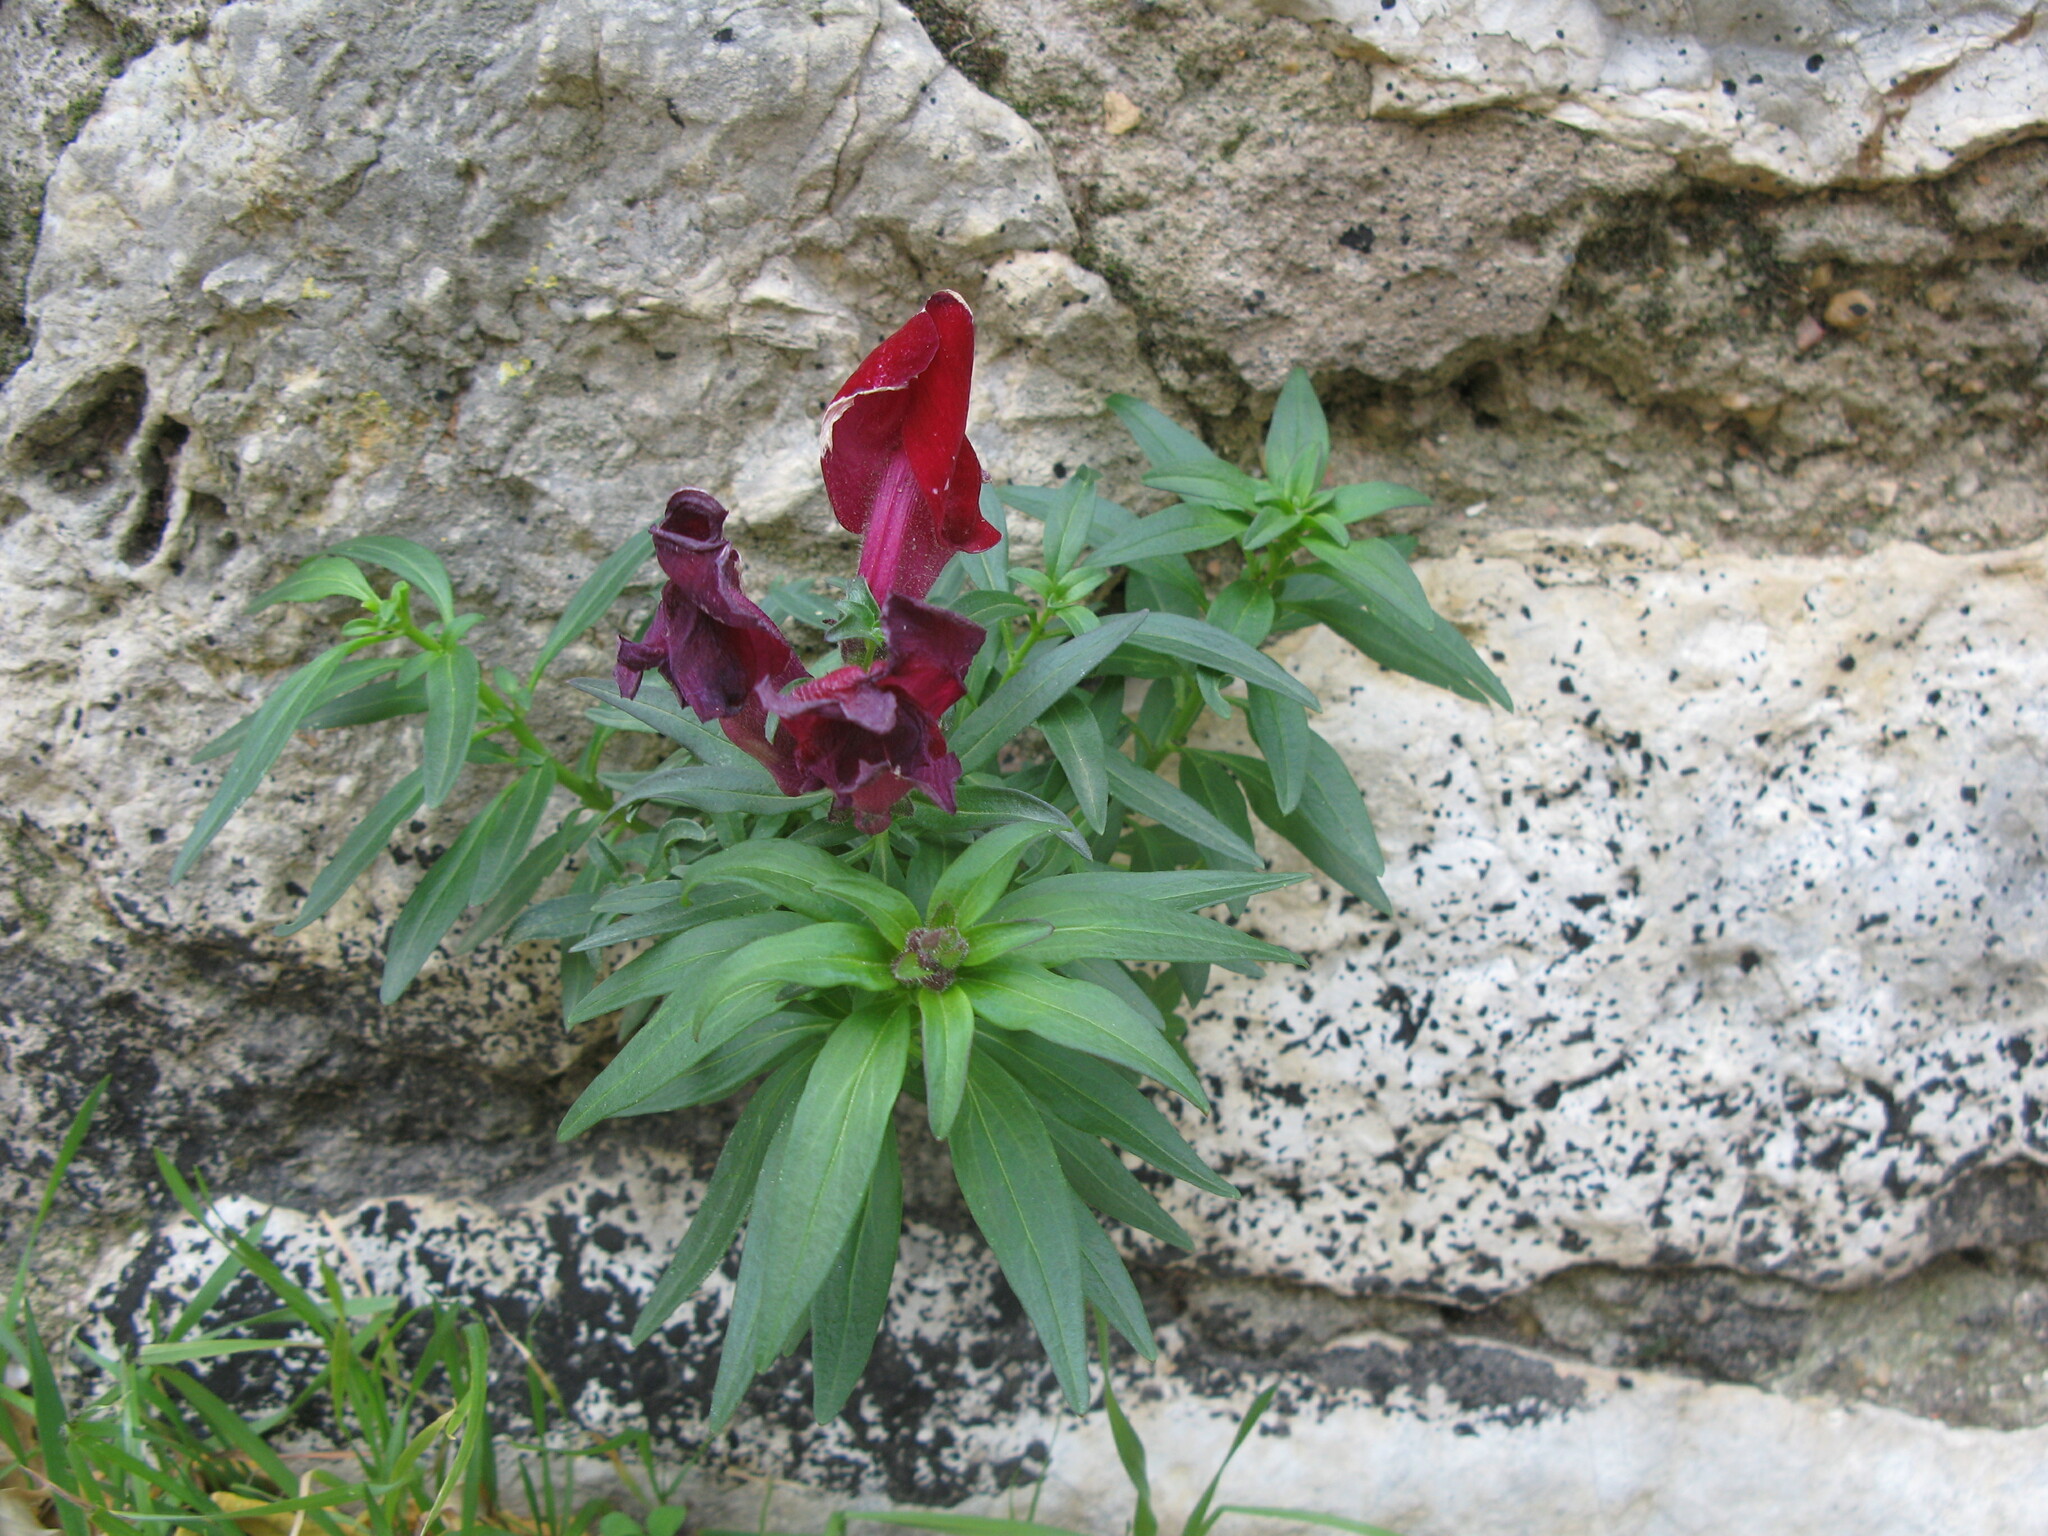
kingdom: Plantae
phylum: Tracheophyta
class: Magnoliopsida
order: Lamiales
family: Plantaginaceae
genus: Antirrhinum
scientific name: Antirrhinum majus
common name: Snapdragon
